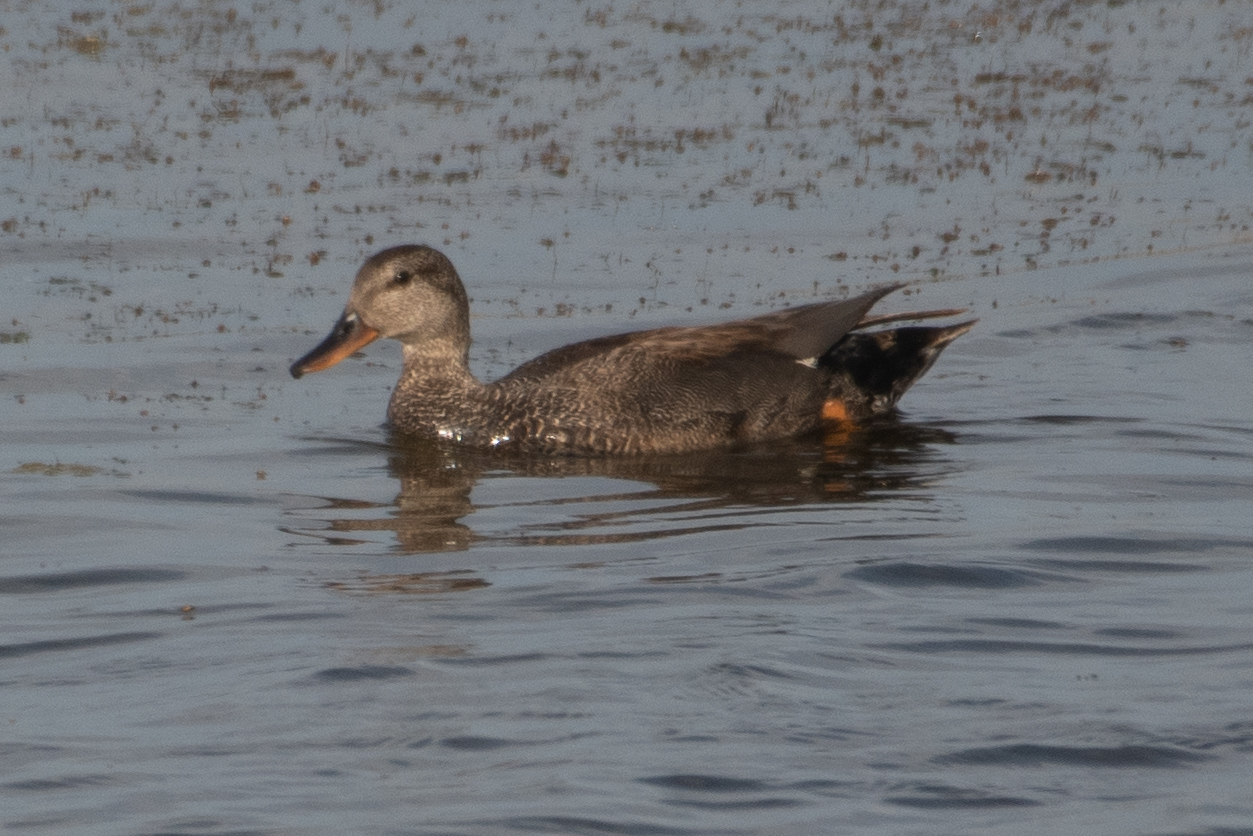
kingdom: Animalia
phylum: Chordata
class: Aves
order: Anseriformes
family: Anatidae
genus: Mareca
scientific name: Mareca strepera
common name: Gadwall
